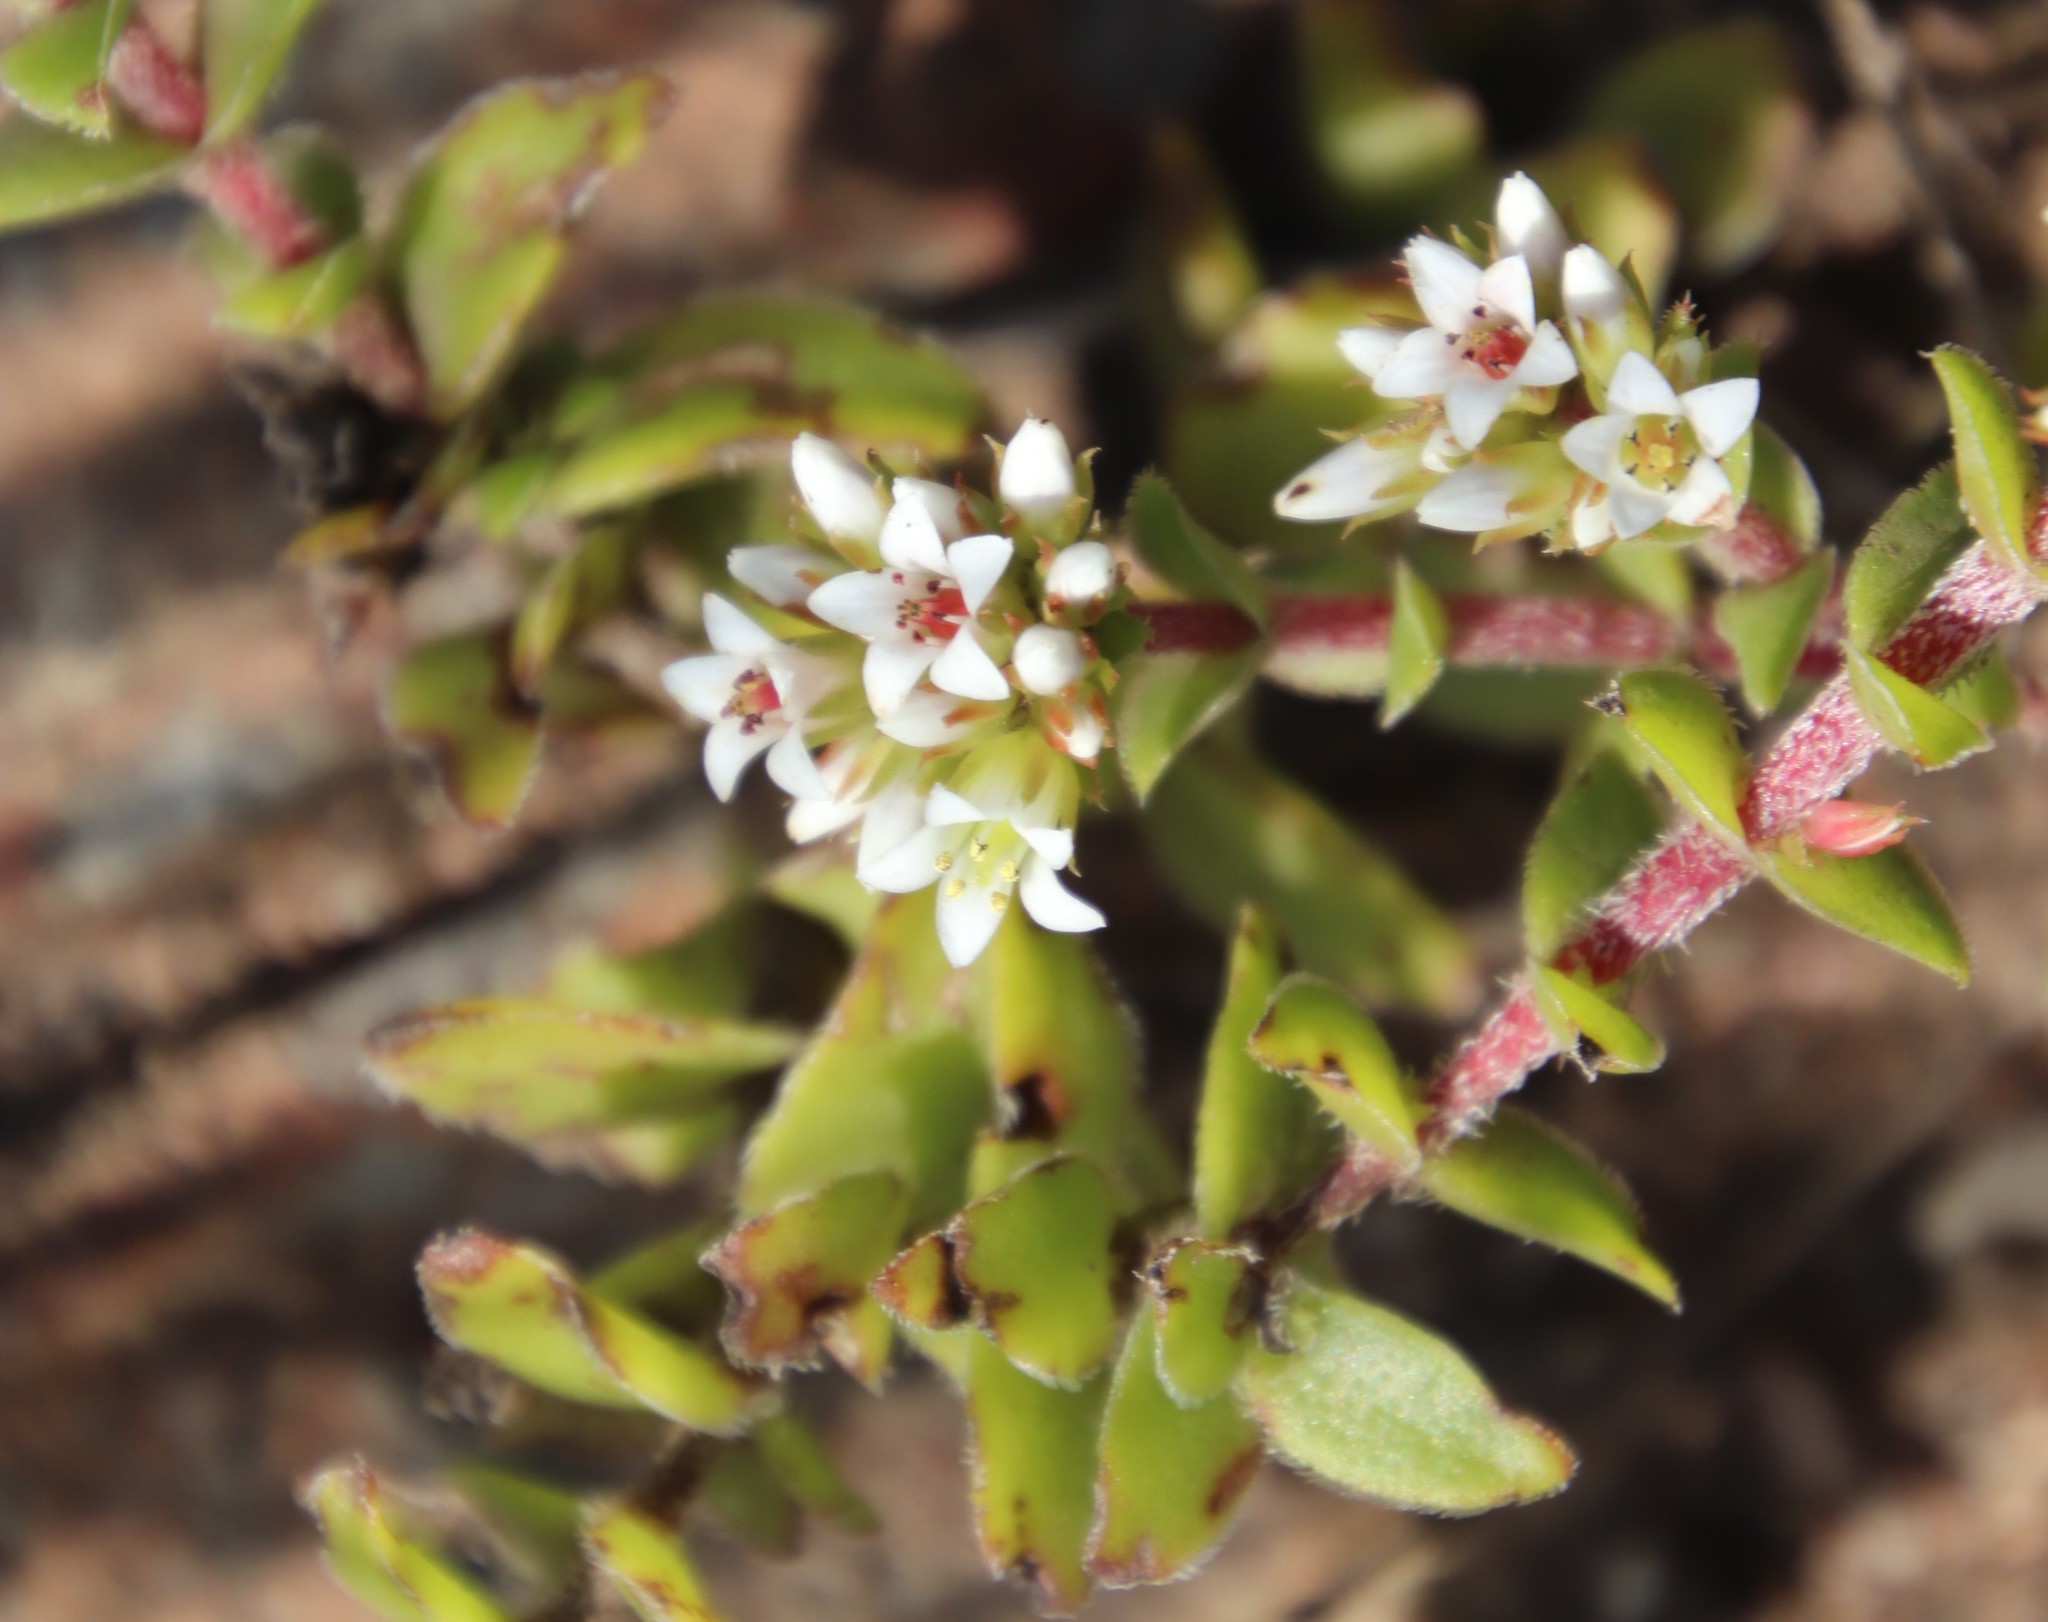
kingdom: Plantae
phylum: Tracheophyta
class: Magnoliopsida
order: Saxifragales
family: Crassulaceae
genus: Crassula
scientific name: Crassula obovata
